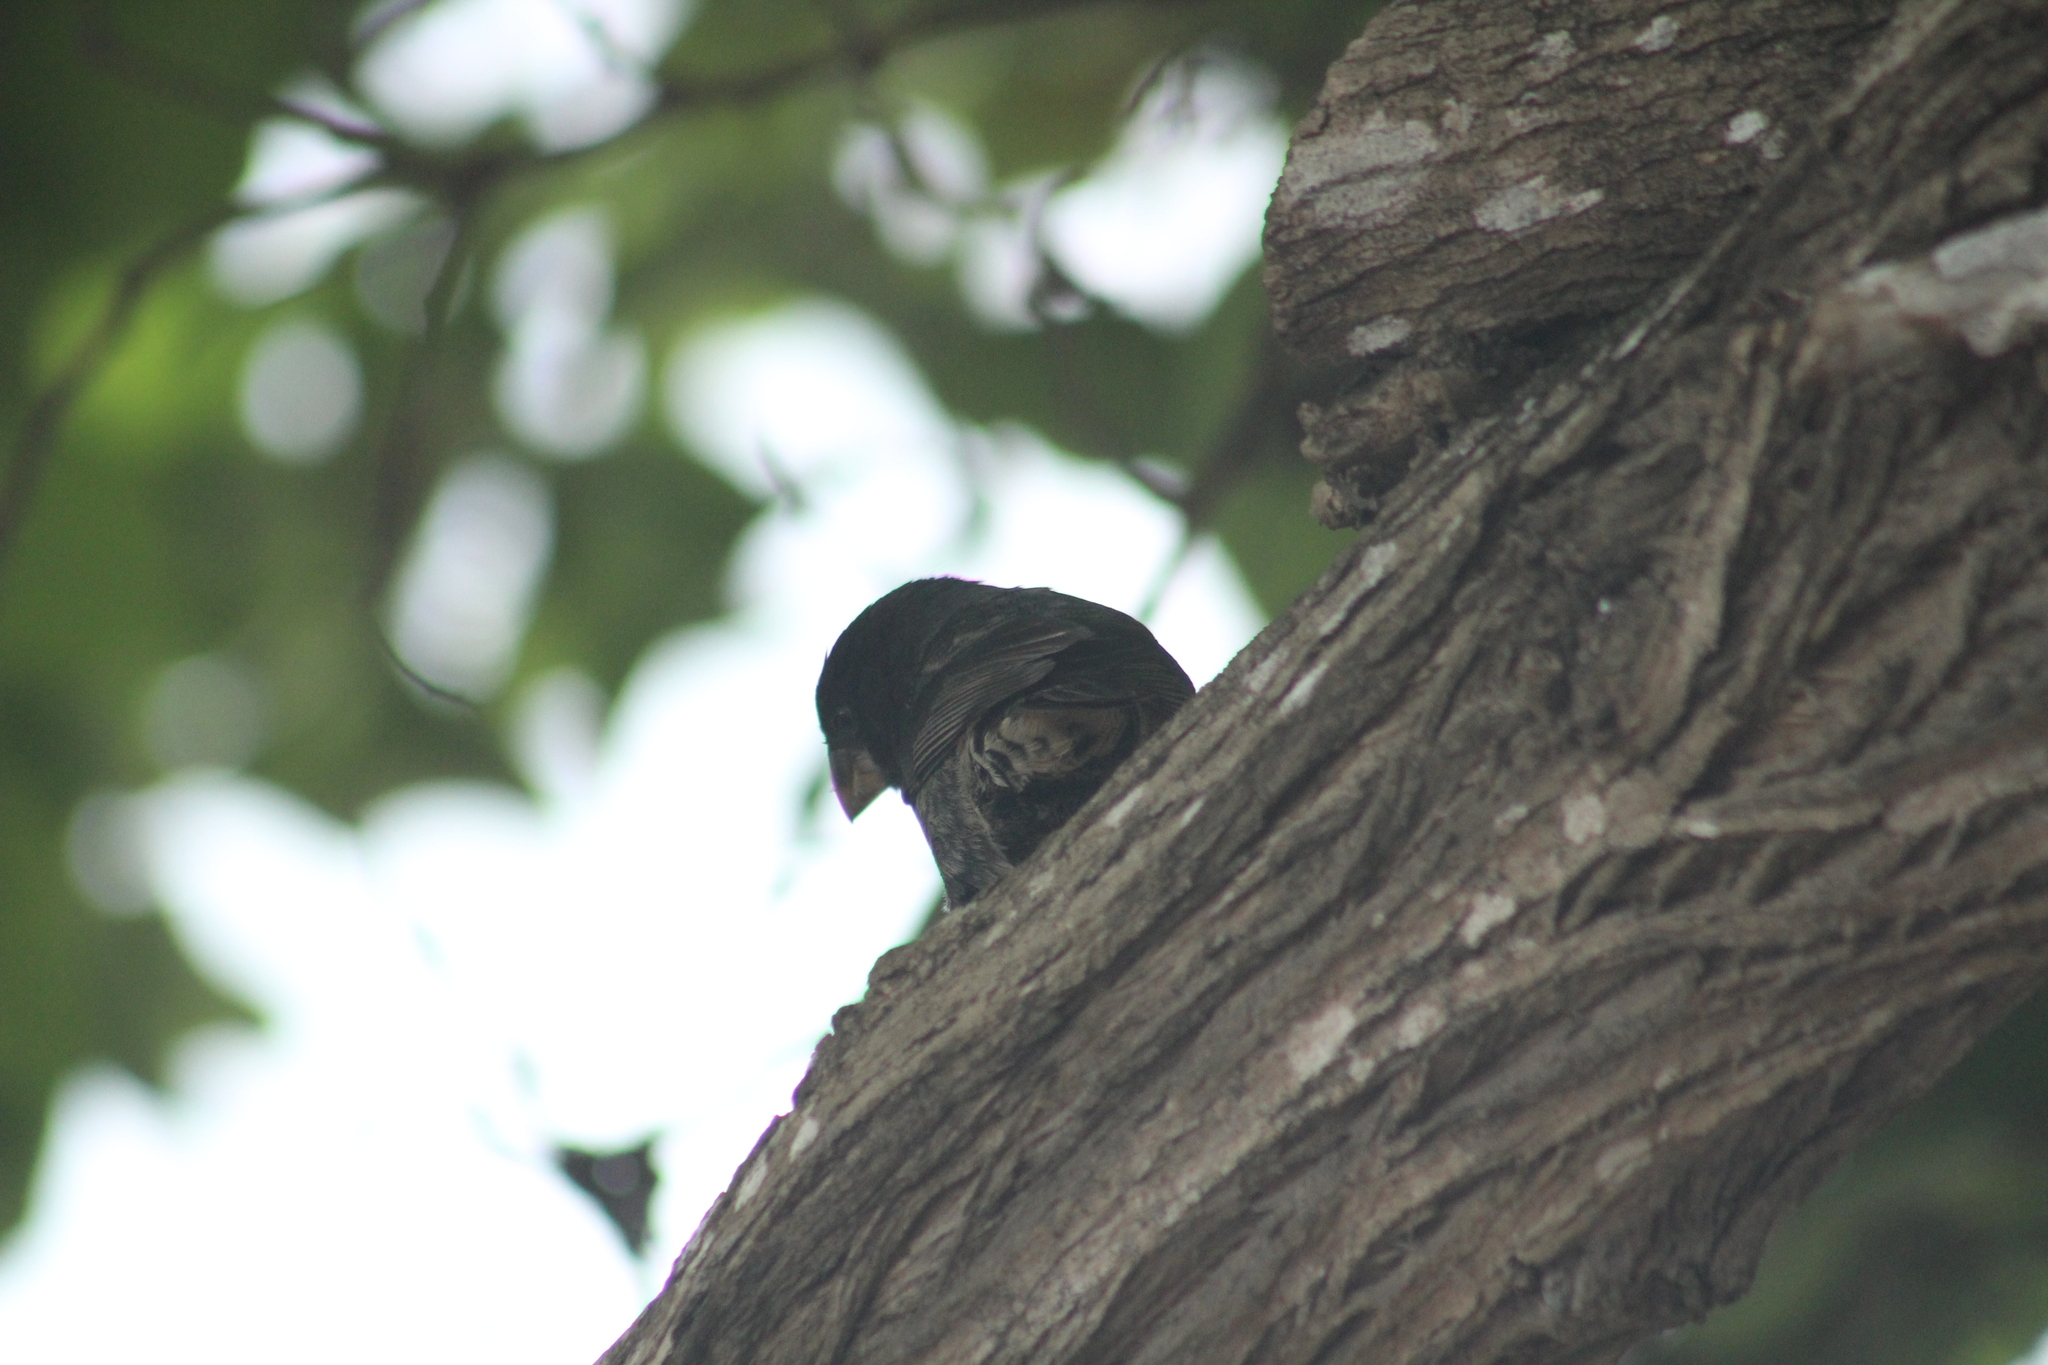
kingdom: Animalia
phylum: Chordata
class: Aves
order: Passeriformes
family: Thraupidae
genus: Geospiza
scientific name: Geospiza fortis
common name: Medium ground finch
